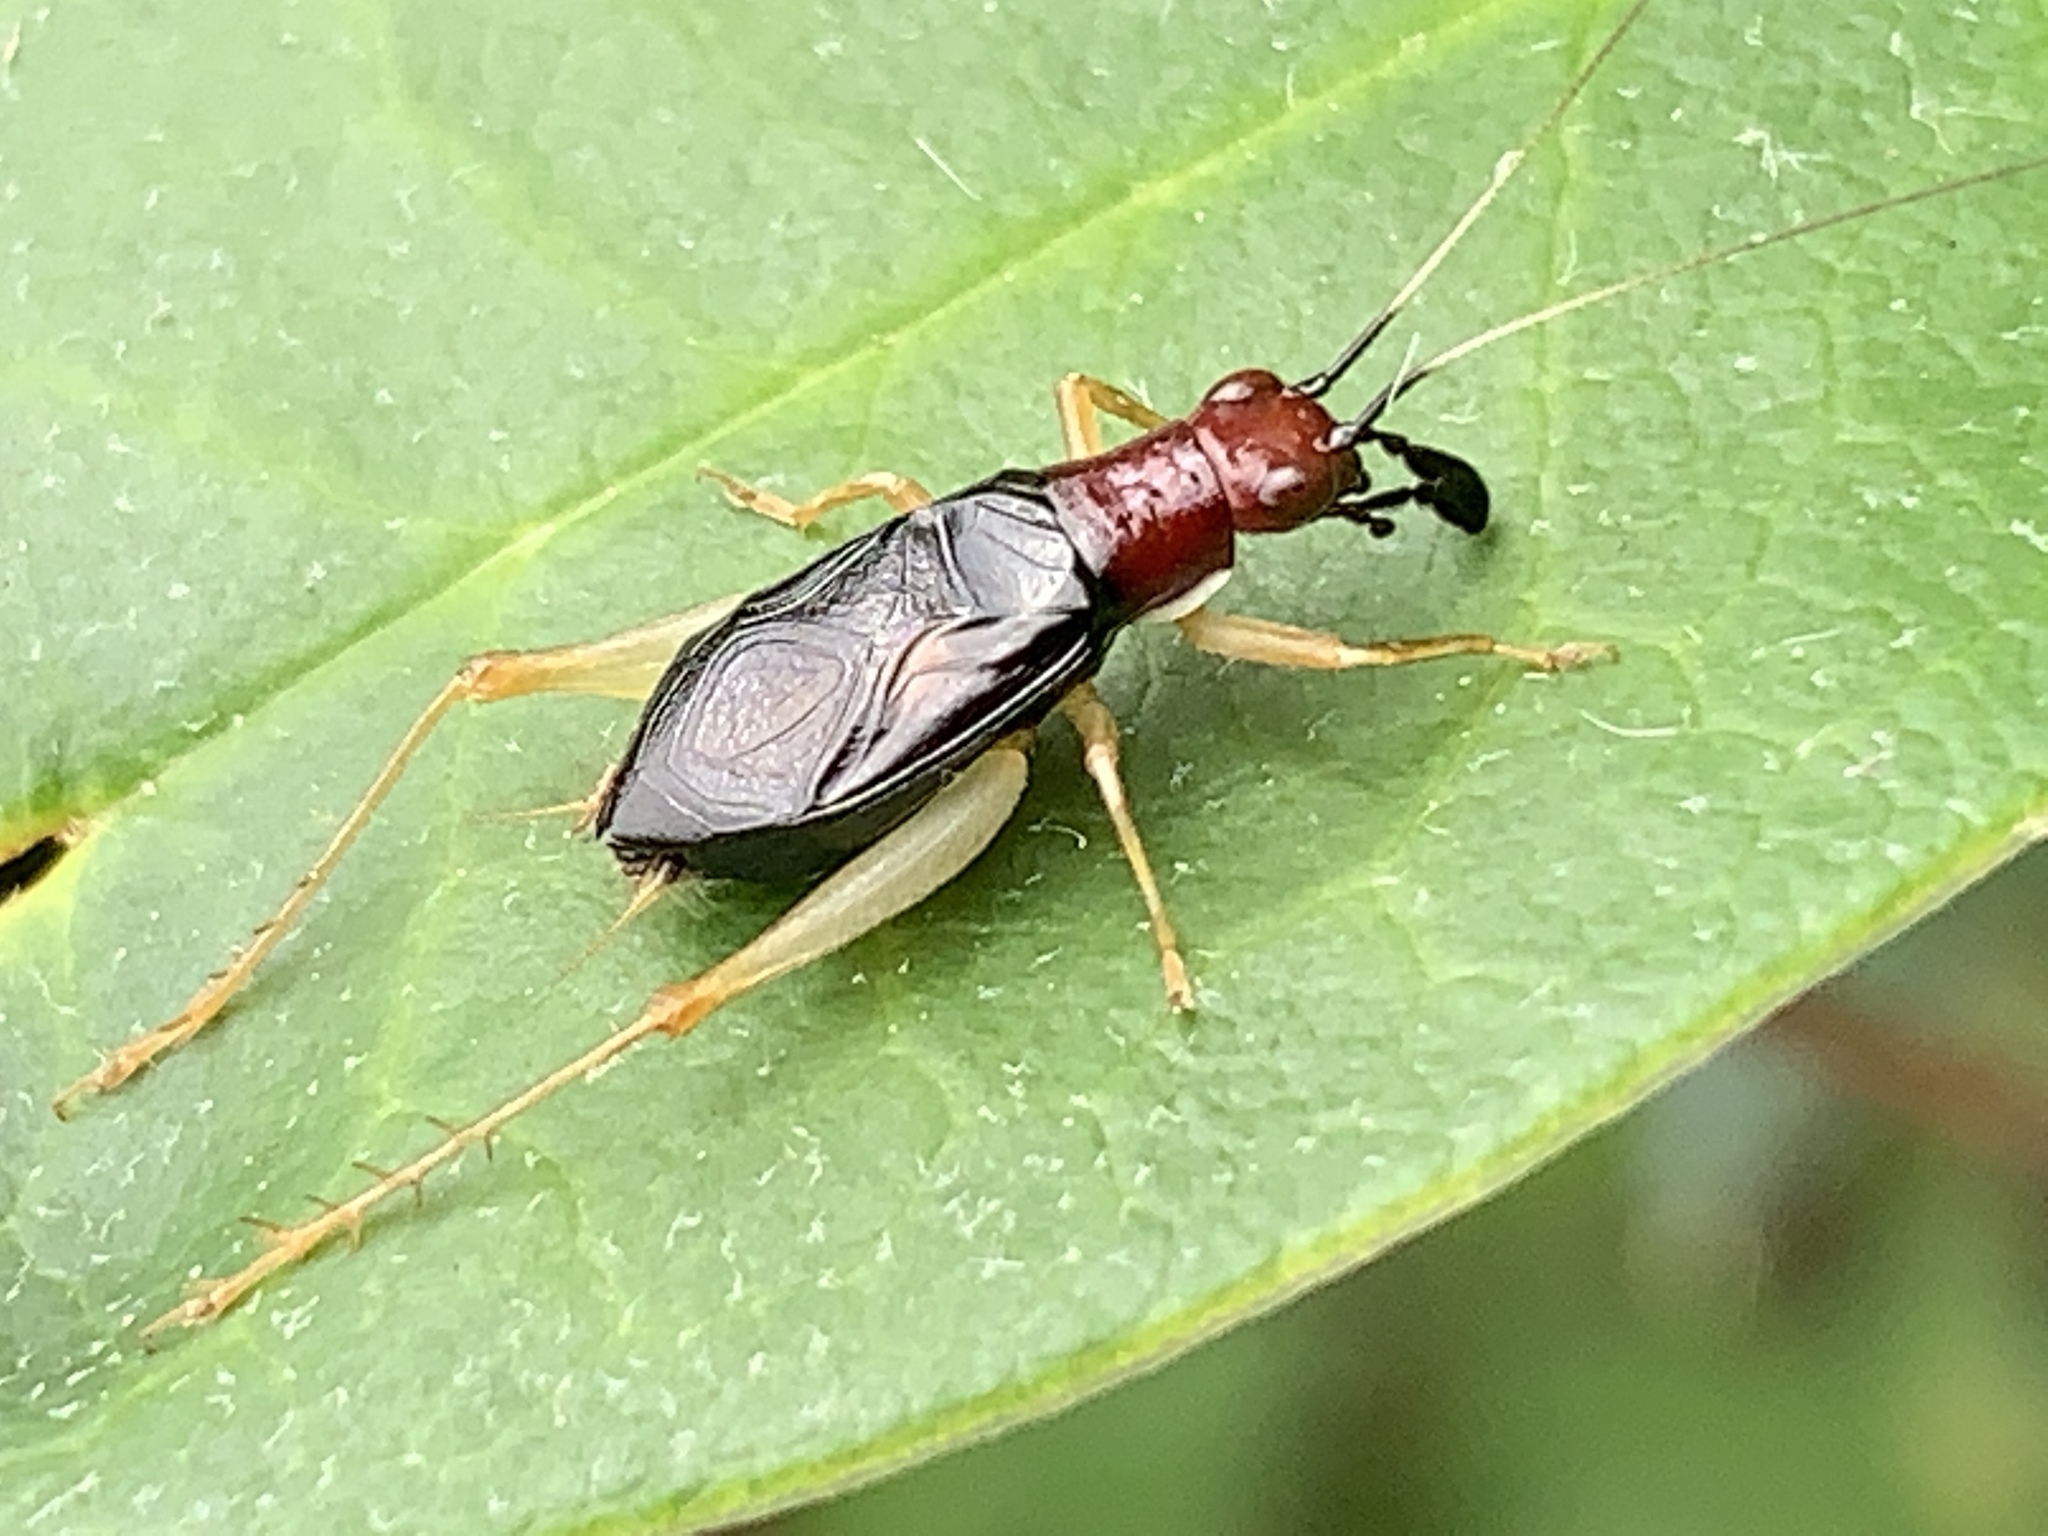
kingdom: Animalia
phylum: Arthropoda
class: Insecta
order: Orthoptera
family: Trigonidiidae
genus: Phyllopalpus
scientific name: Phyllopalpus pulchellus
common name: Handsome trig
